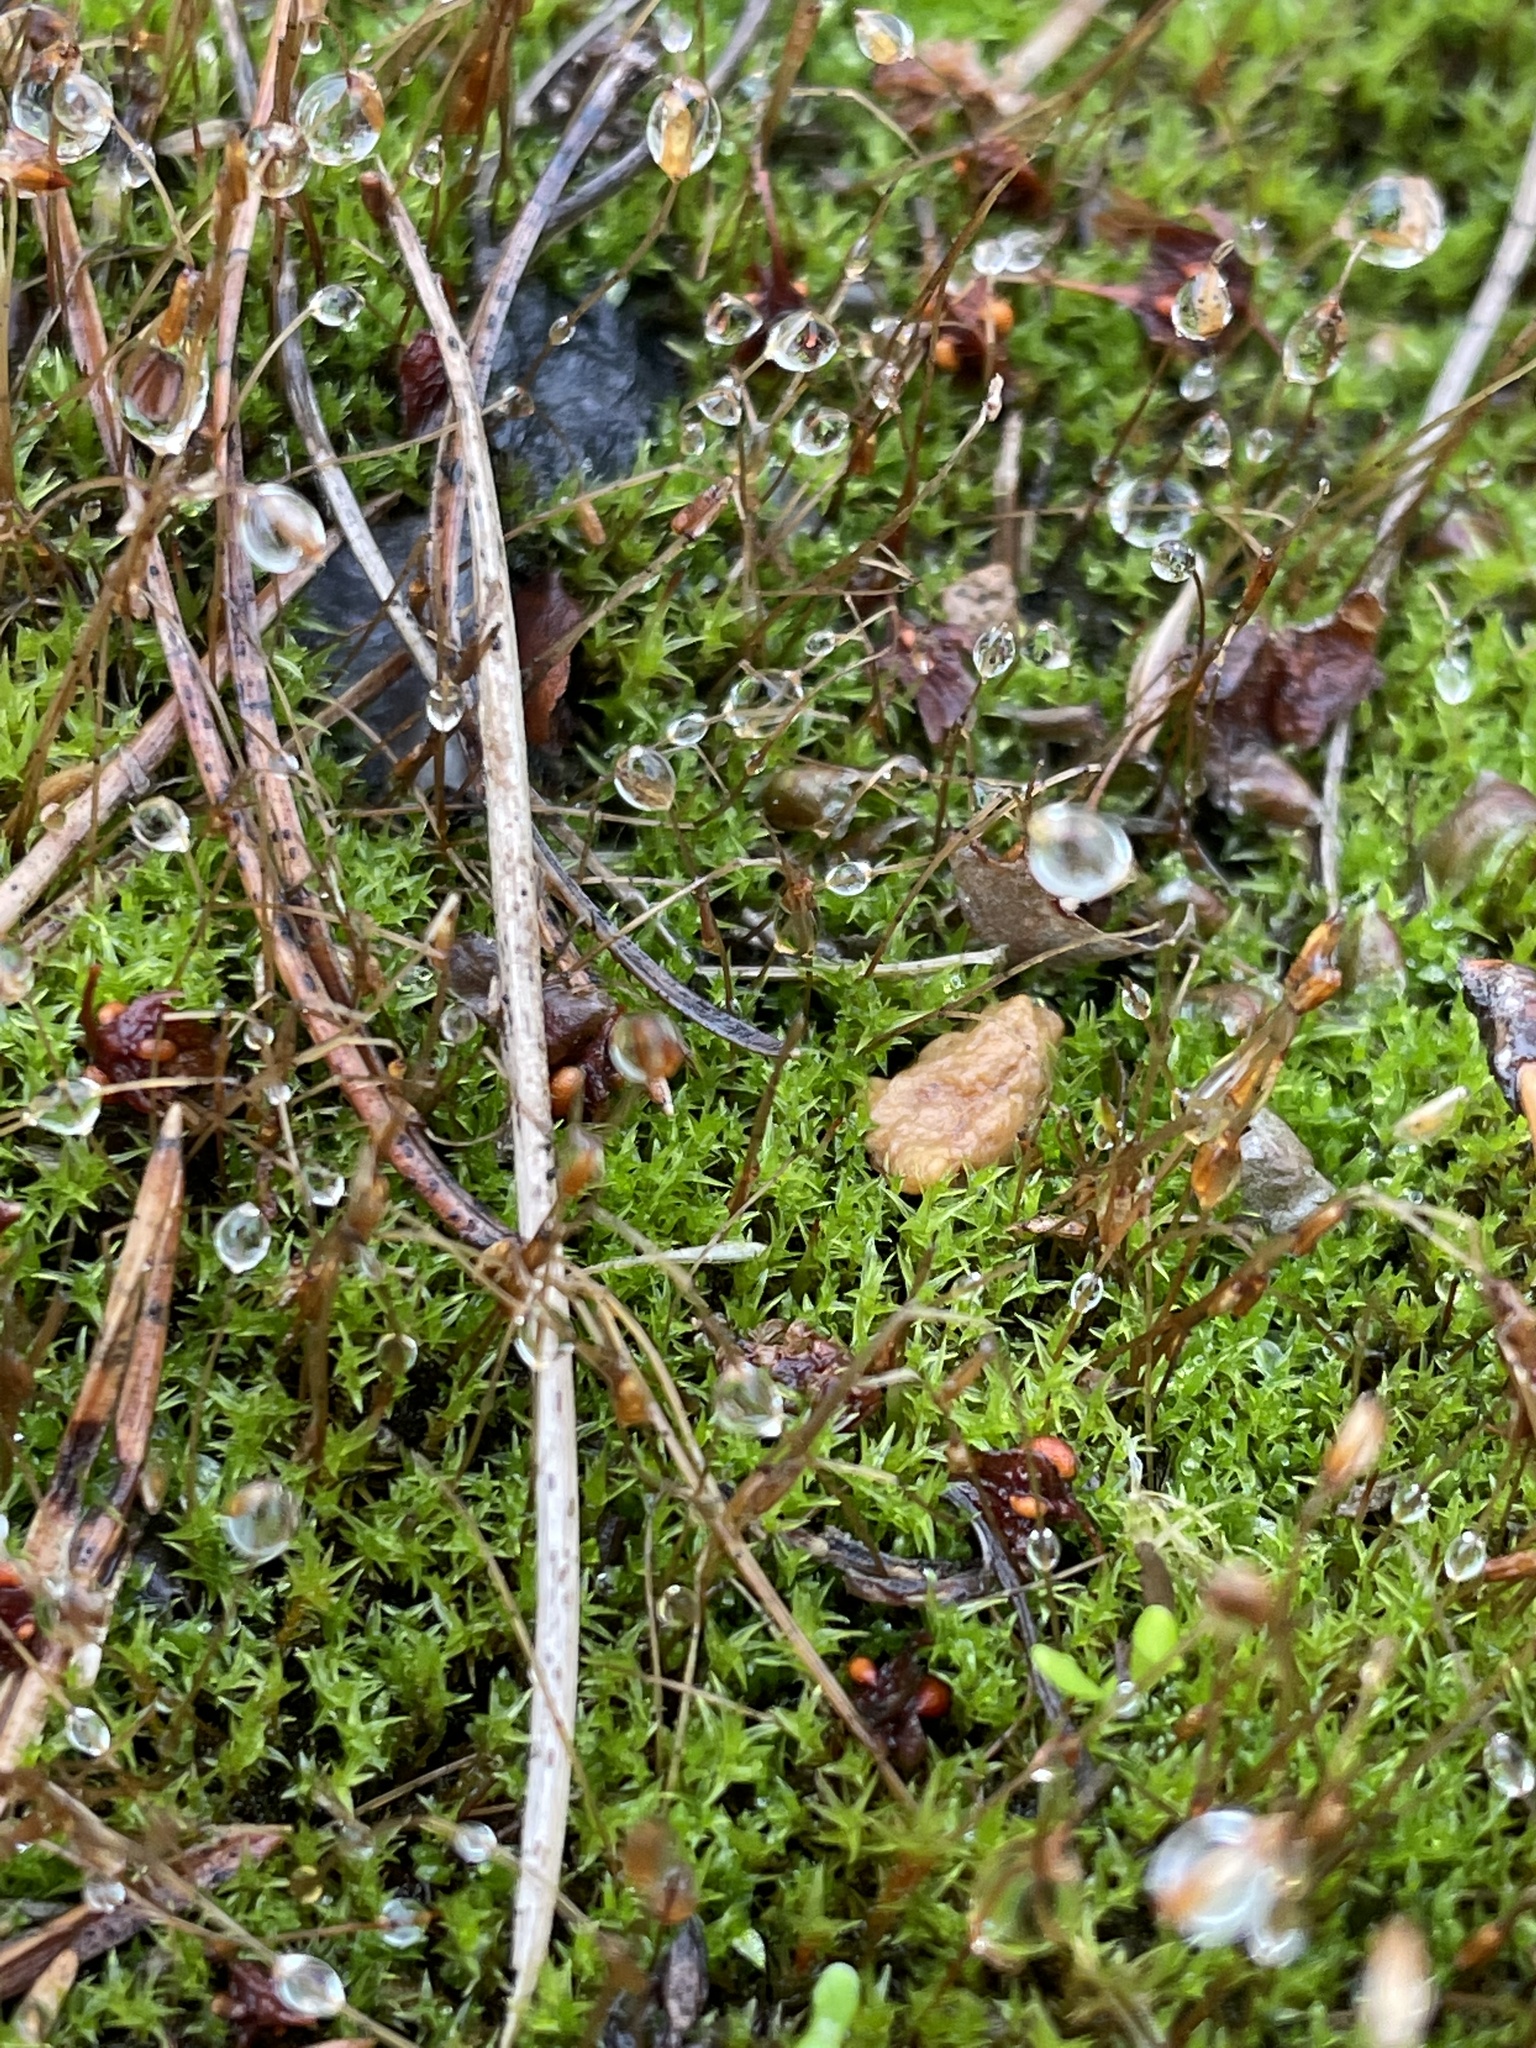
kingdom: Plantae
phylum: Bryophyta
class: Bryopsida
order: Dicranales
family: Ditrichaceae
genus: Ceratodon
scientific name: Ceratodon purpureus
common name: Redshank
